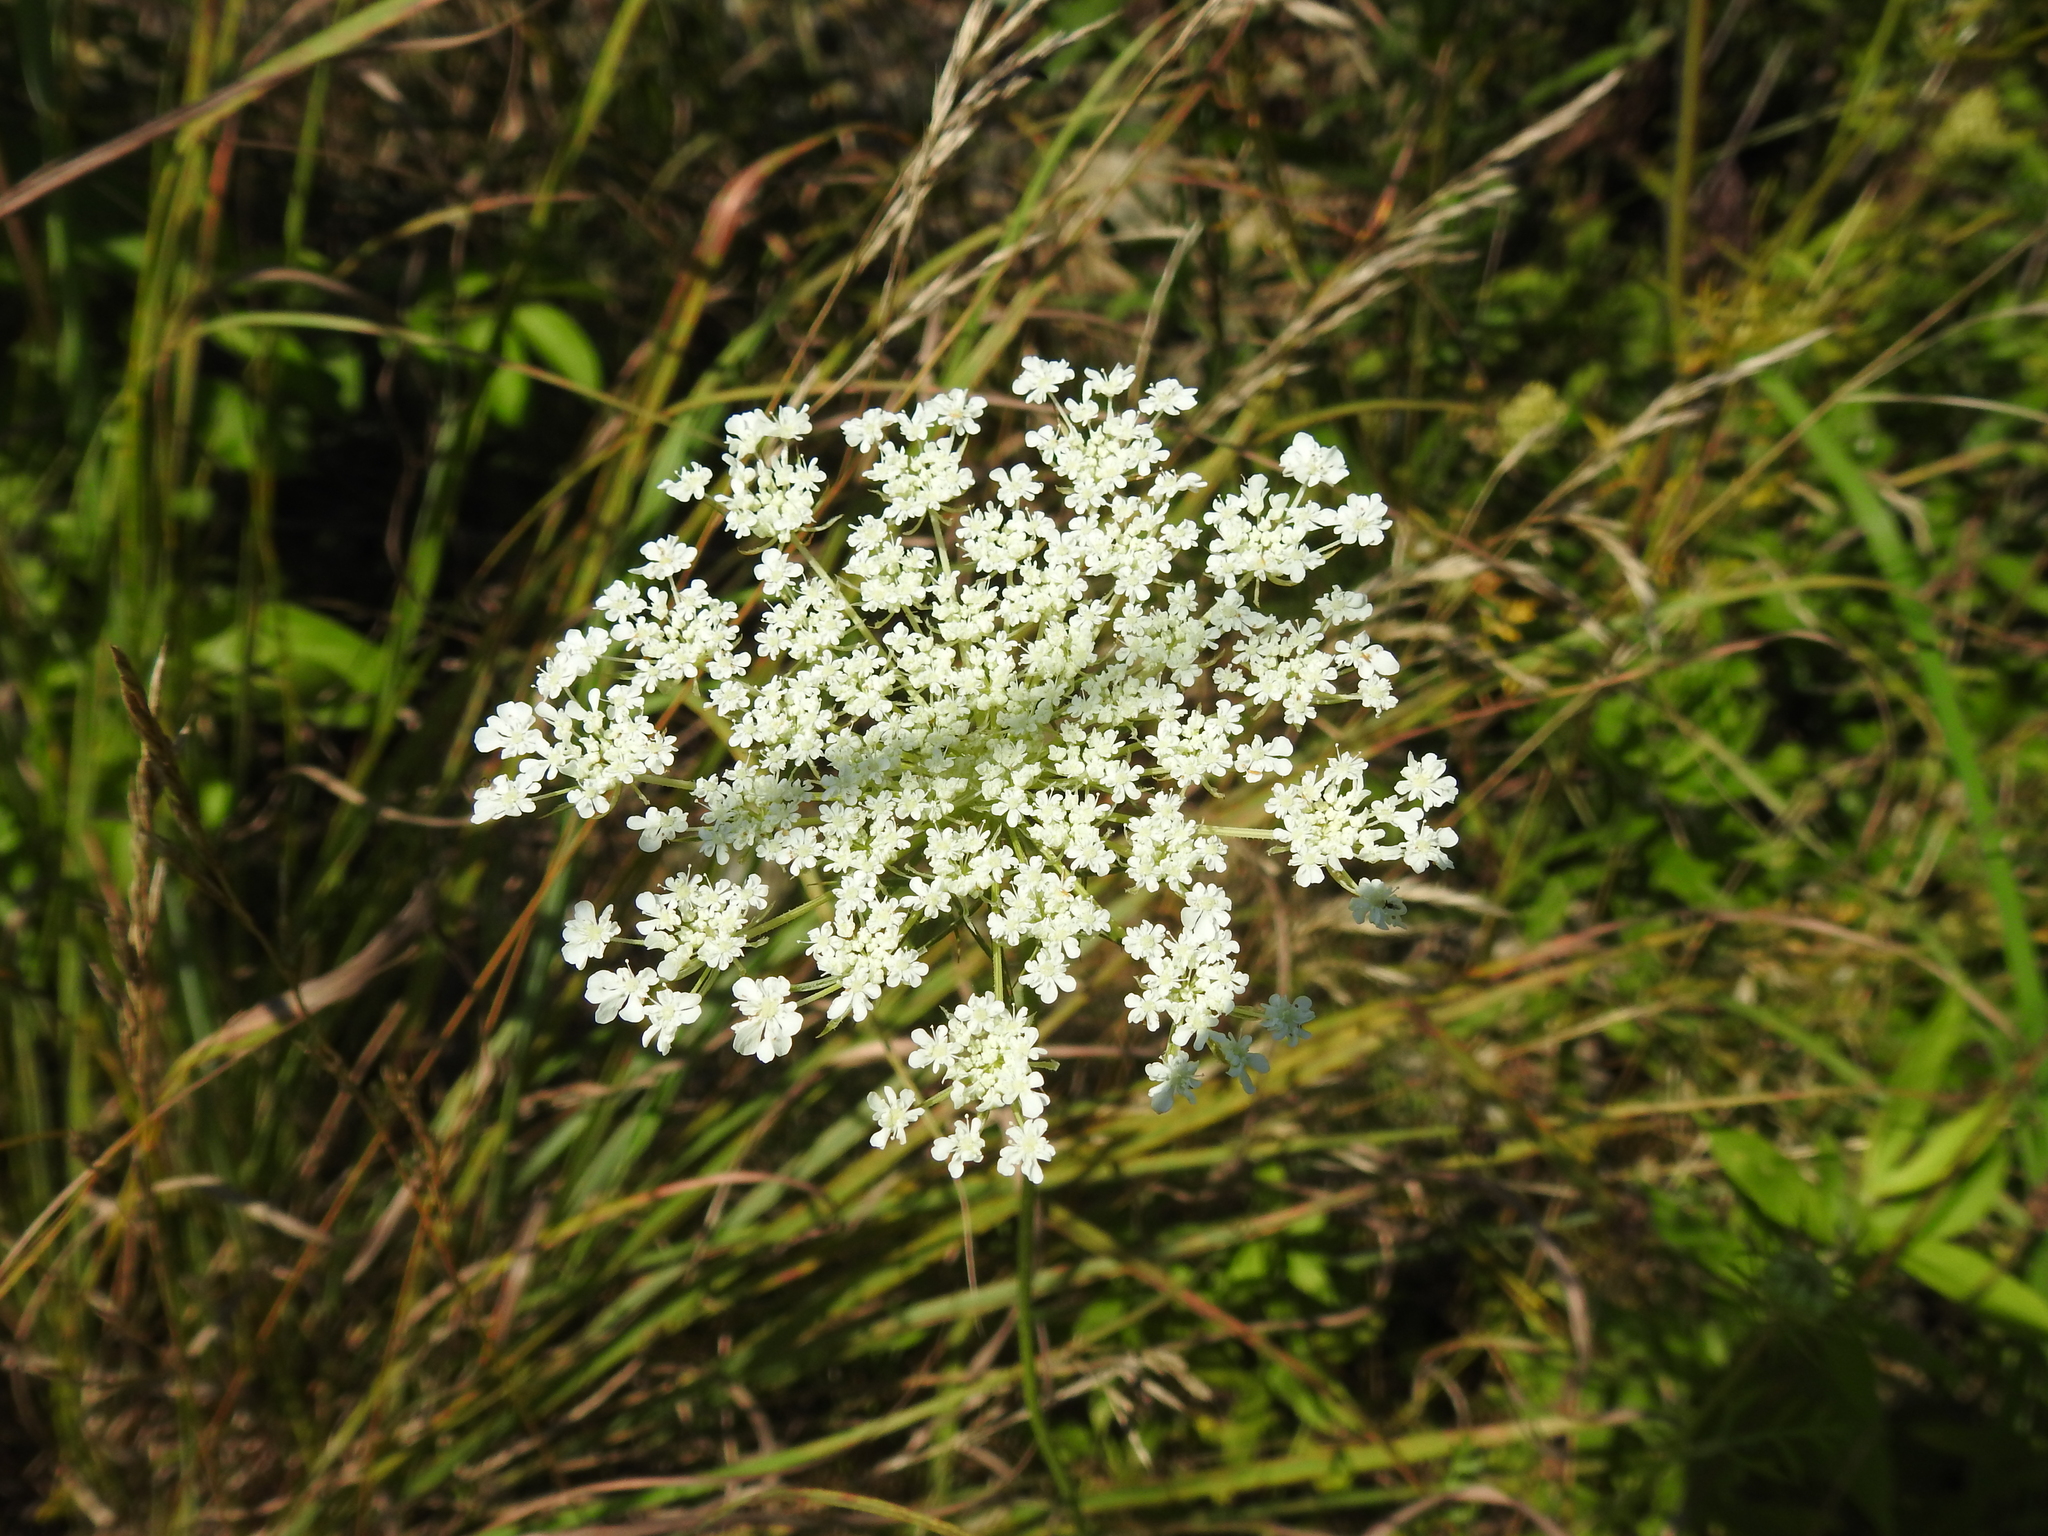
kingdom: Plantae
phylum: Tracheophyta
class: Magnoliopsida
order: Apiales
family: Apiaceae
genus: Daucus
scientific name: Daucus carota
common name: Wild carrot
